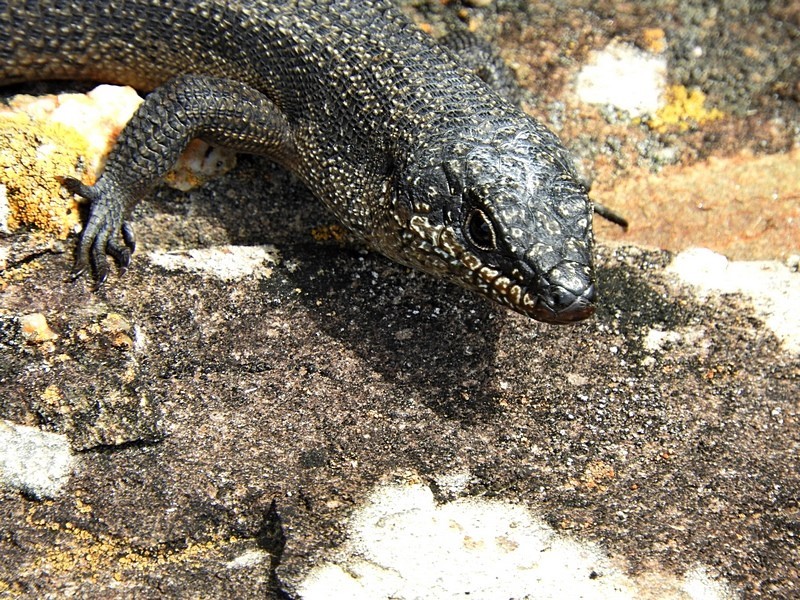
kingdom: Animalia
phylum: Chordata
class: Squamata
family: Scincidae
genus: Egernia
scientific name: Egernia saxatilis
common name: Black crevice-skink
